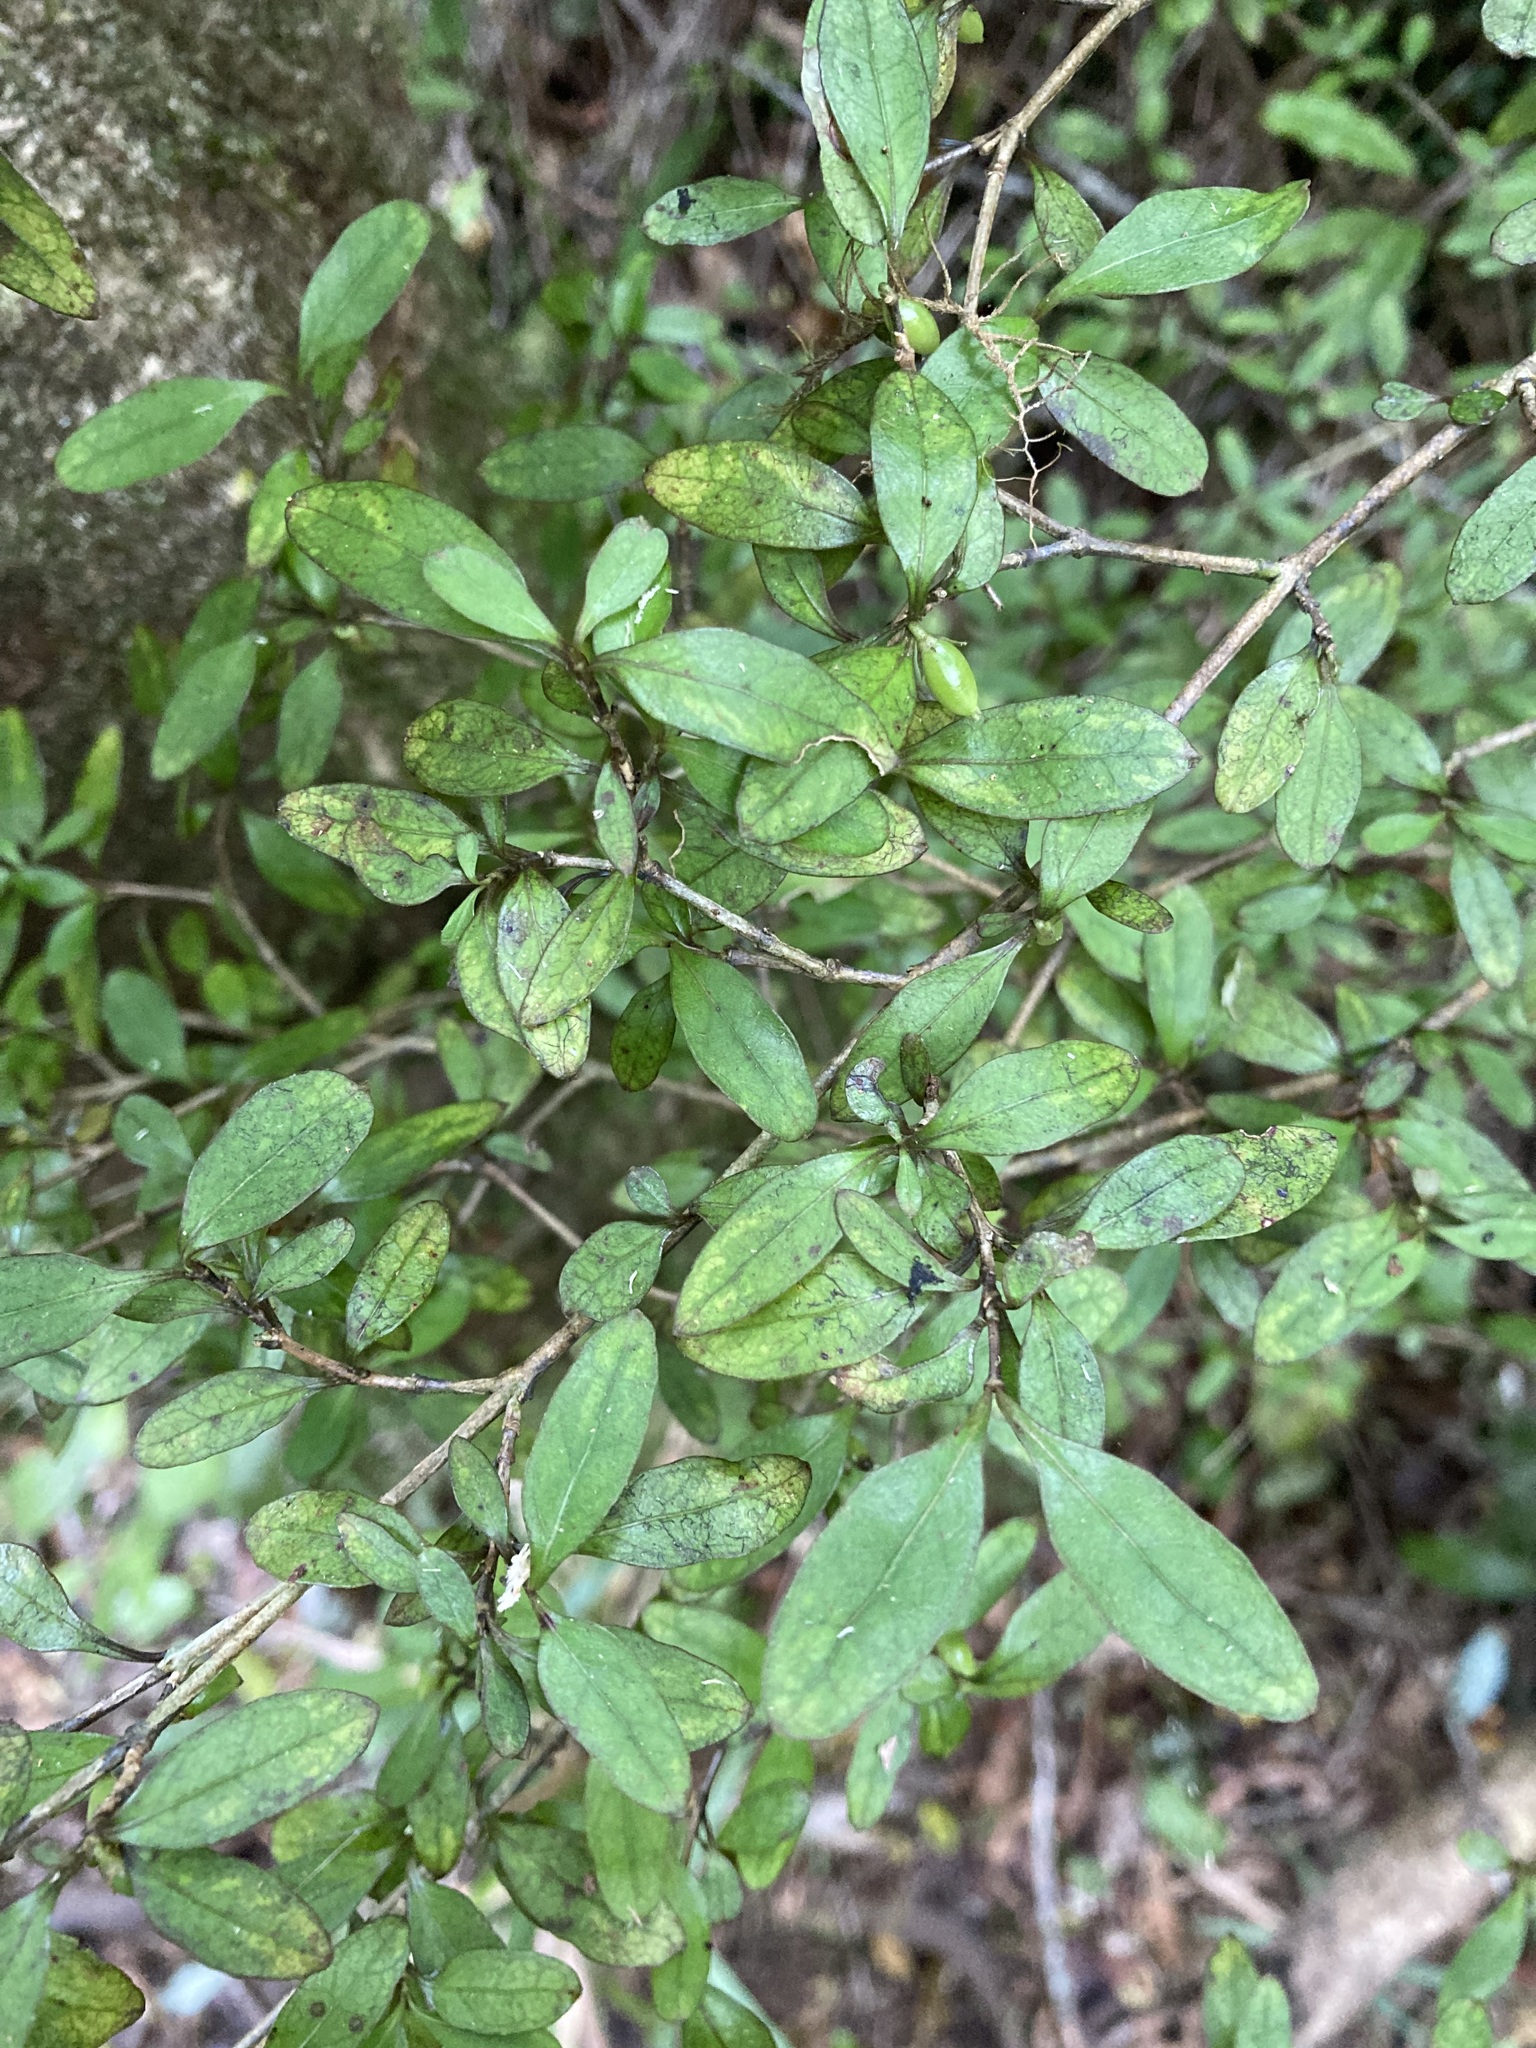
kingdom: Plantae
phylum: Tracheophyta
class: Magnoliopsida
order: Gentianales
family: Rubiaceae
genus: Coprosma
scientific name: Coprosma colensoi
